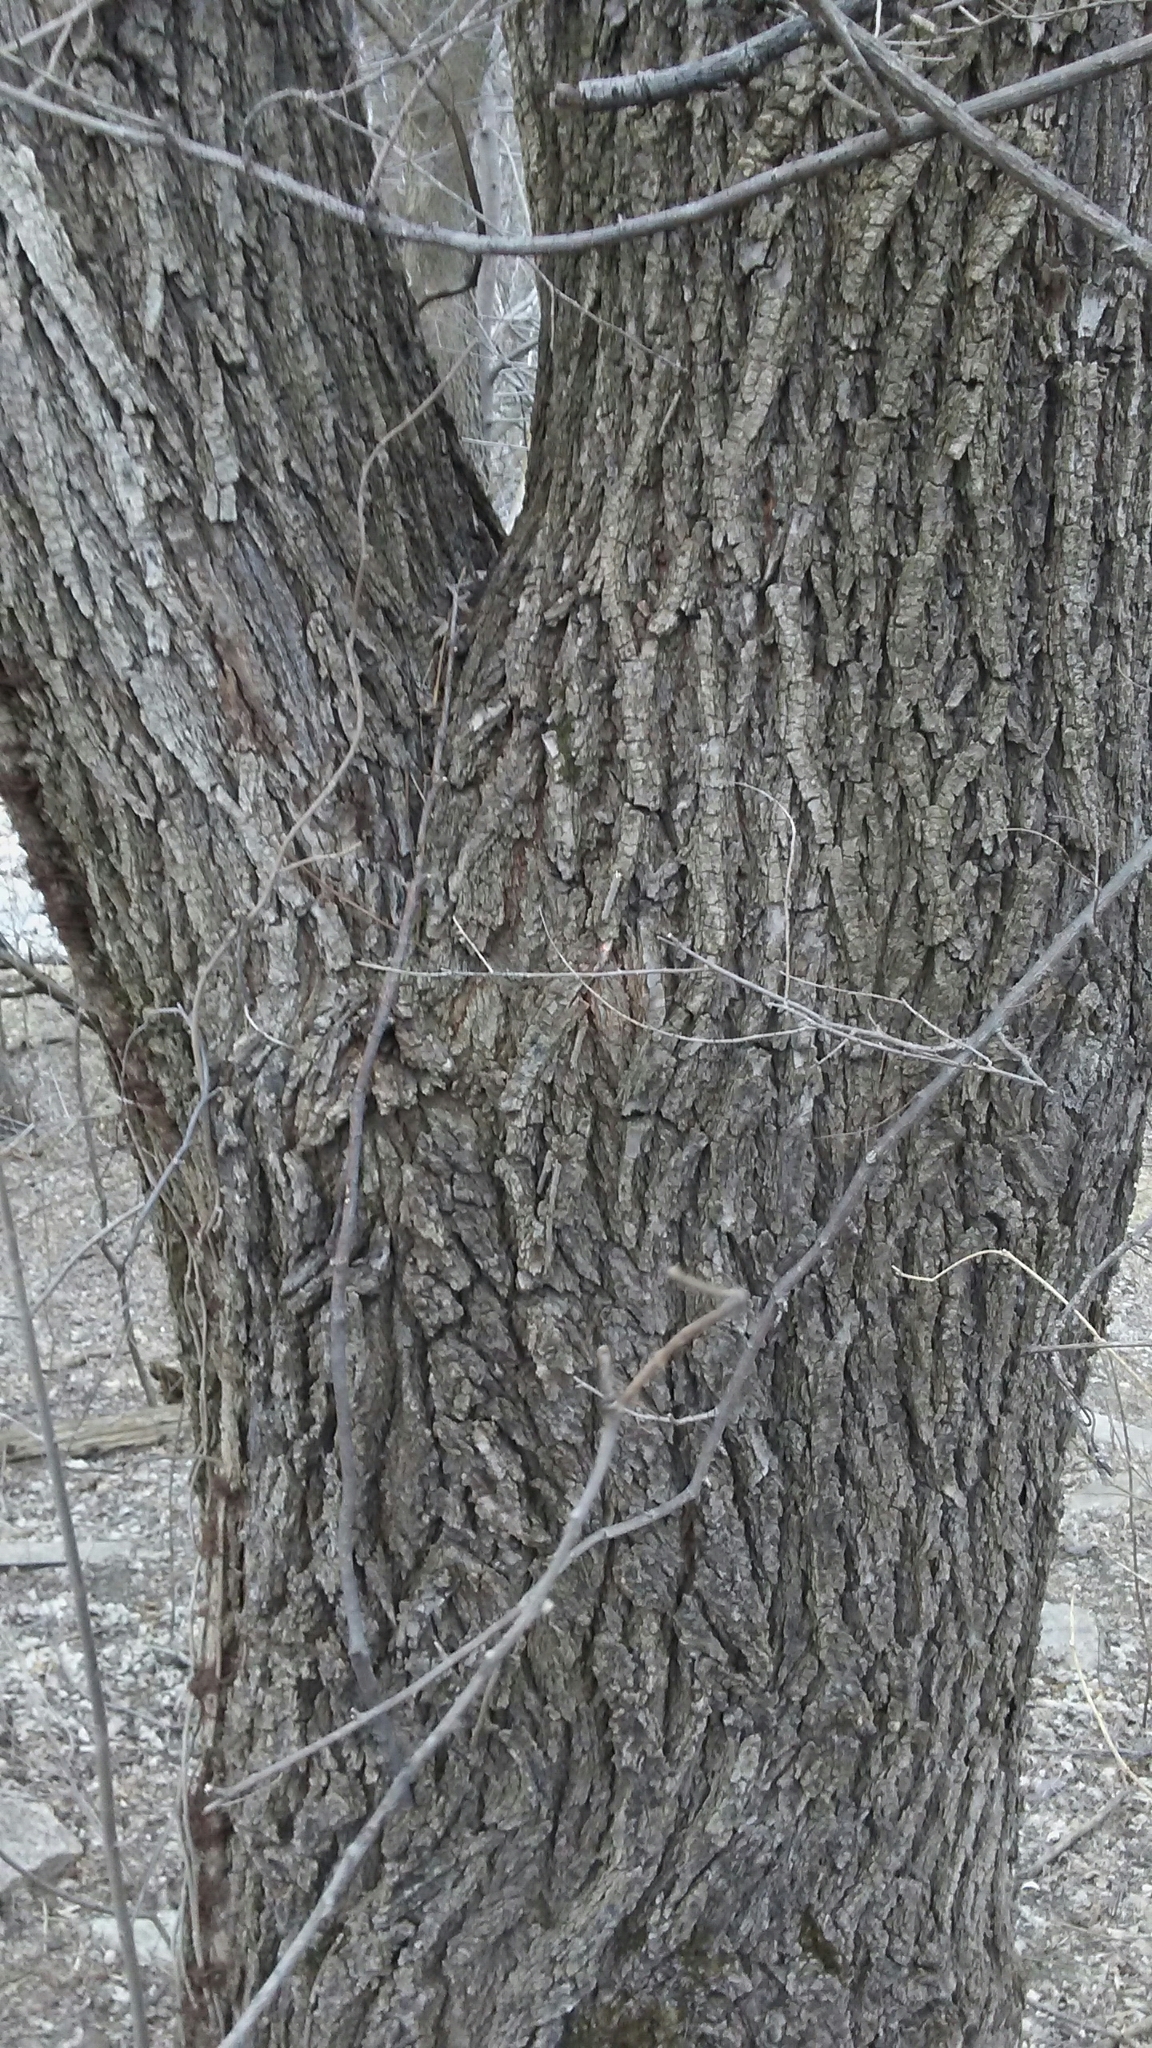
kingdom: Plantae
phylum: Tracheophyta
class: Magnoliopsida
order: Rosales
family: Ulmaceae
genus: Ulmus
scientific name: Ulmus pumila
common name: Siberian elm
